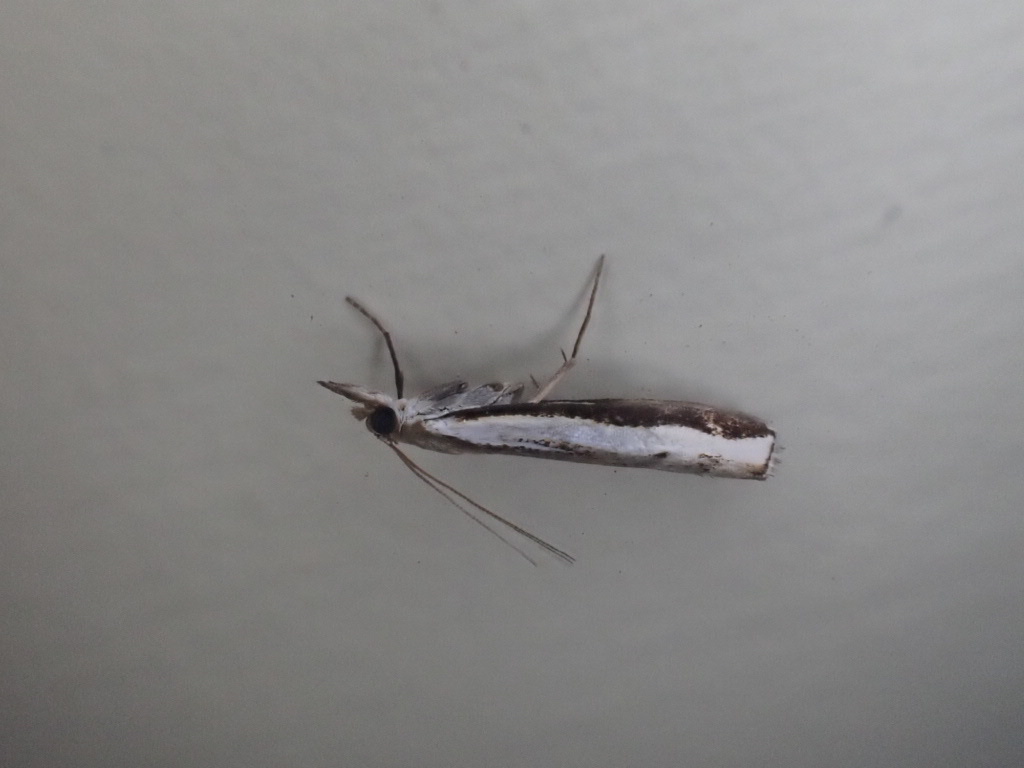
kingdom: Animalia
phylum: Arthropoda
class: Insecta
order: Lepidoptera
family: Crambidae
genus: Orocrambus
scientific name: Orocrambus flexuosellus
